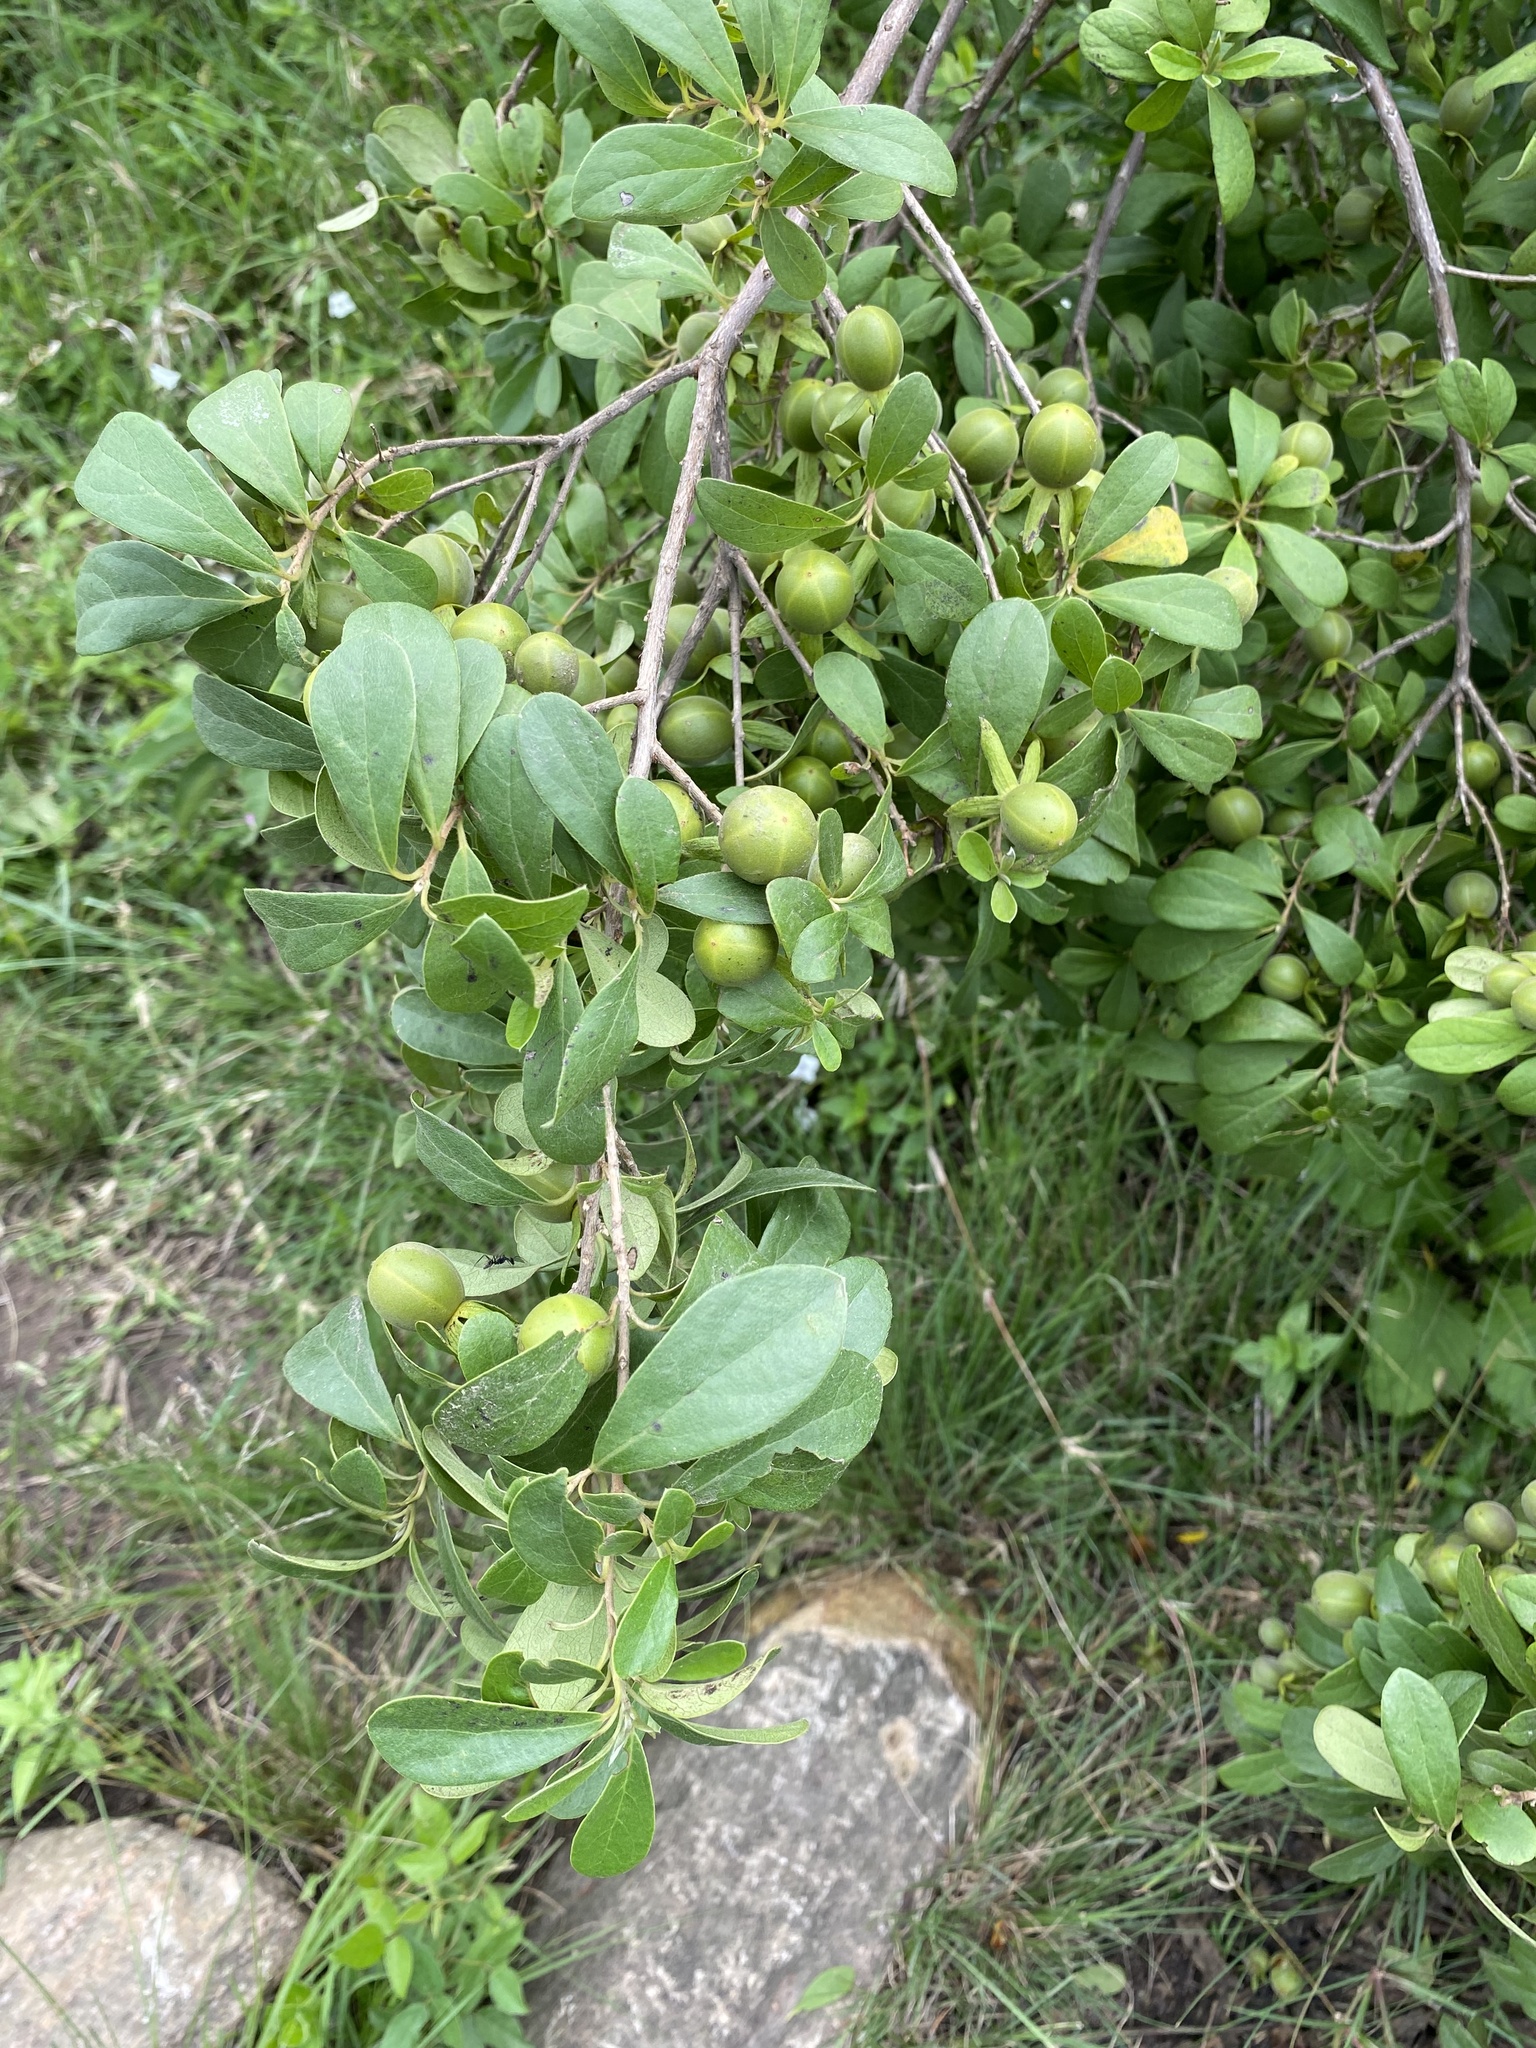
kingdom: Plantae
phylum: Tracheophyta
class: Magnoliopsida
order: Ericales
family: Ebenaceae
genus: Diospyros
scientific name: Diospyros lycioides
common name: Red star apple
